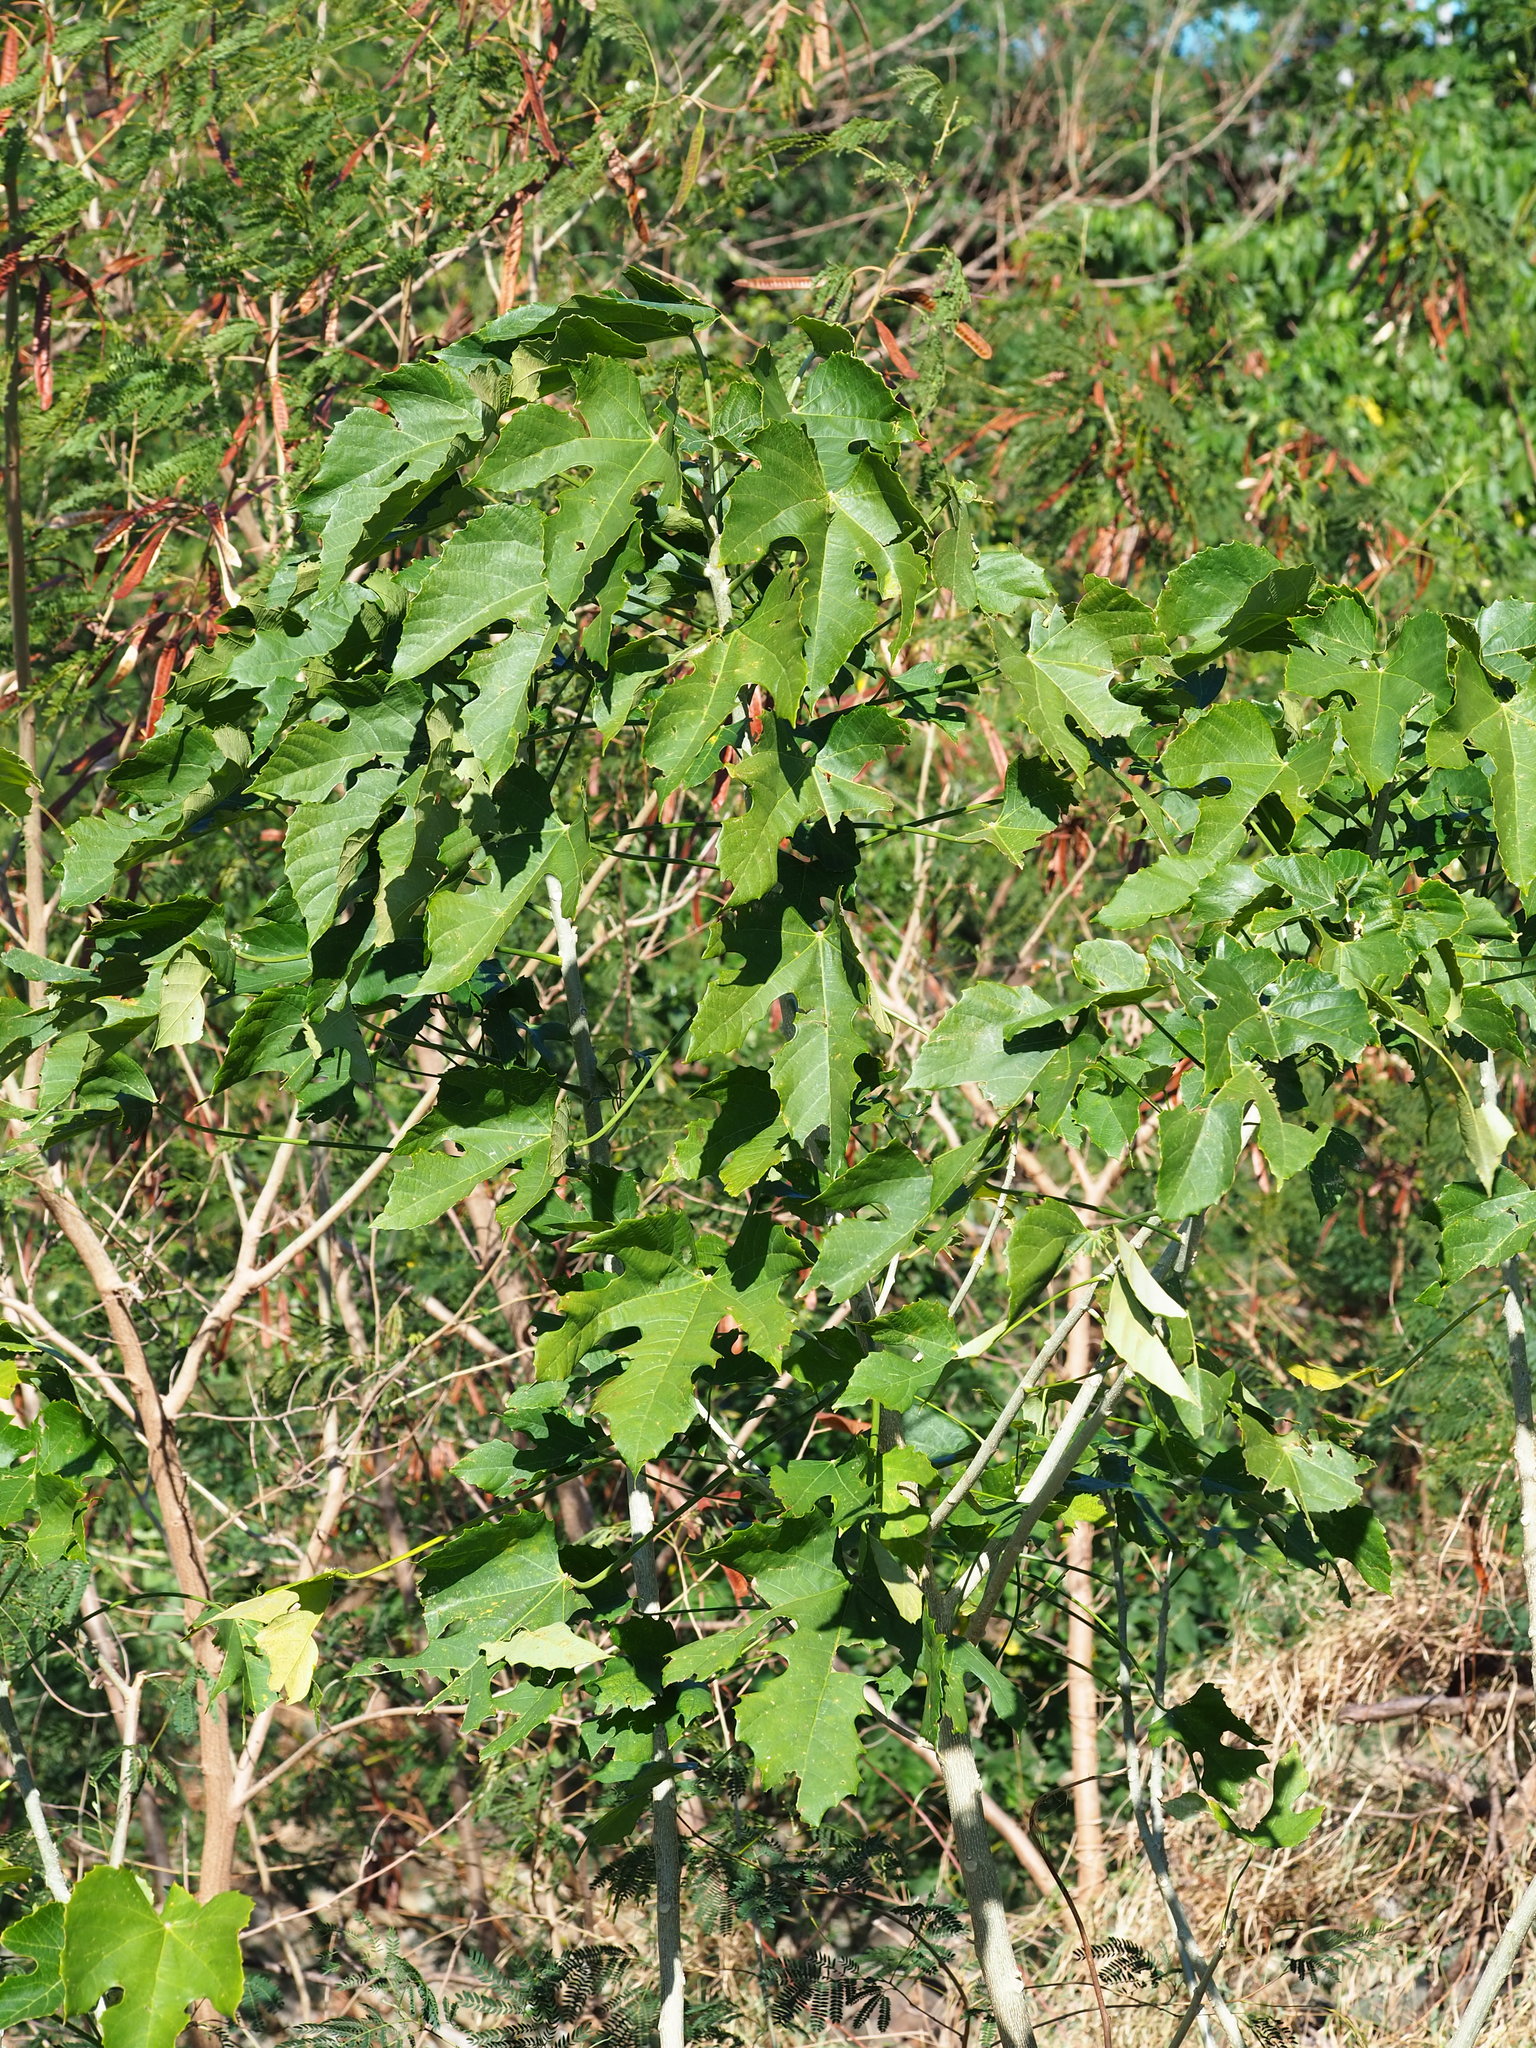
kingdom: Plantae
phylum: Tracheophyta
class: Magnoliopsida
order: Malpighiales
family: Euphorbiaceae
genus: Melanolepis
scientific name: Melanolepis multiglandulosa
